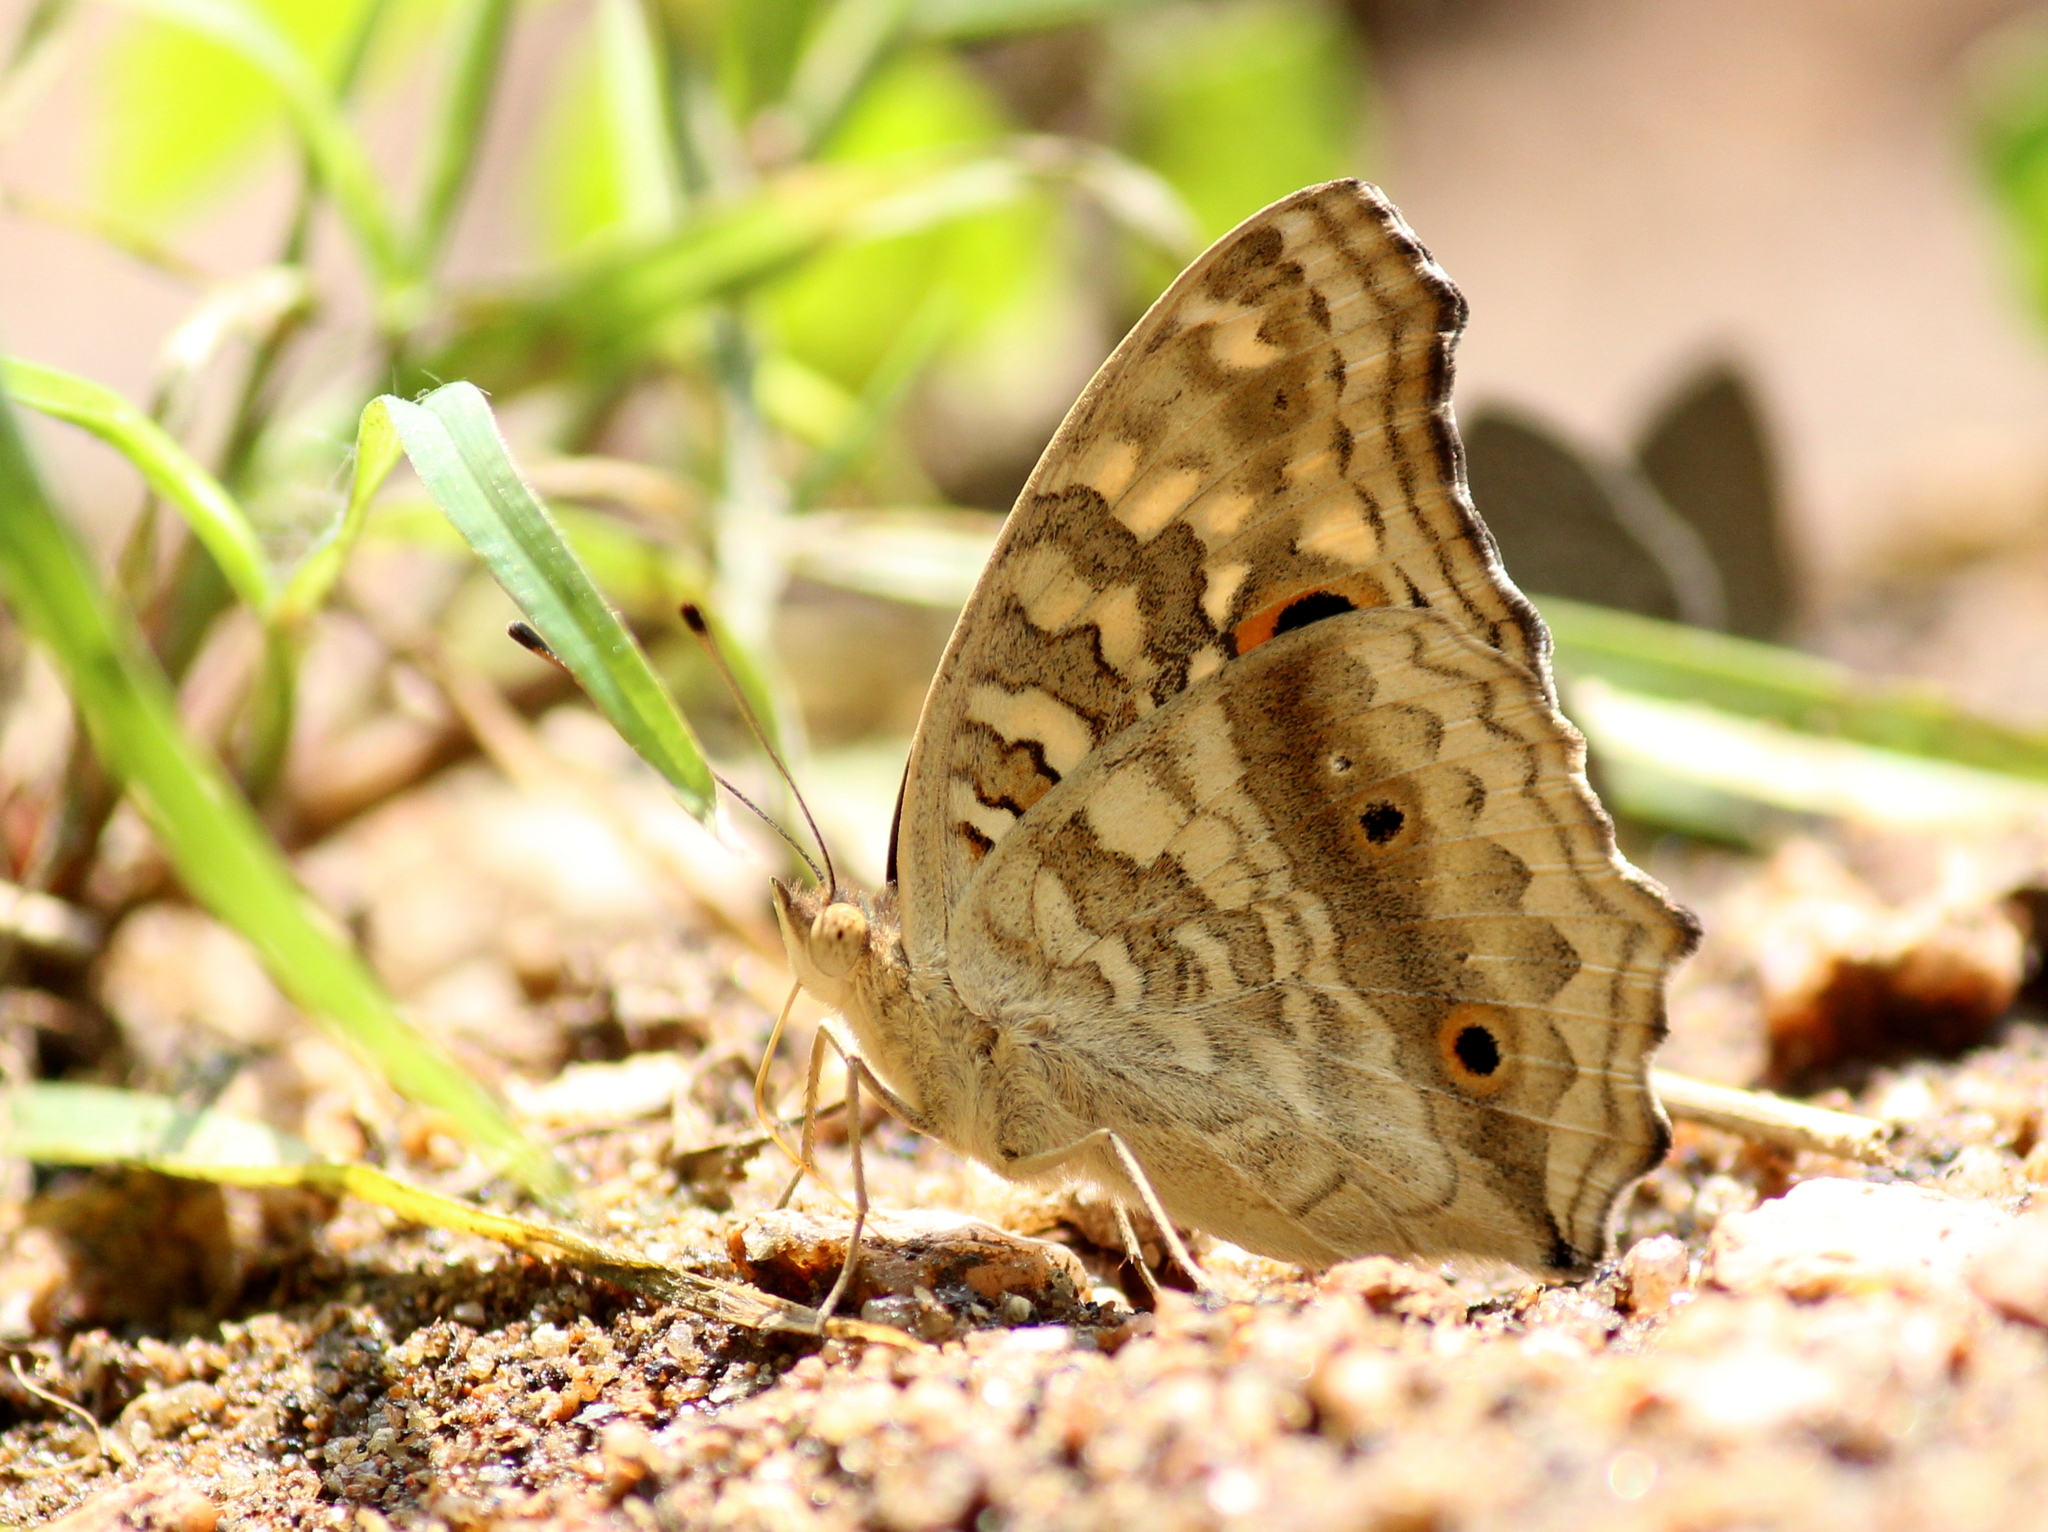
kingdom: Animalia
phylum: Arthropoda
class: Insecta
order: Lepidoptera
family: Nymphalidae
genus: Junonia
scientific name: Junonia lemonias
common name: Lemon pansy
